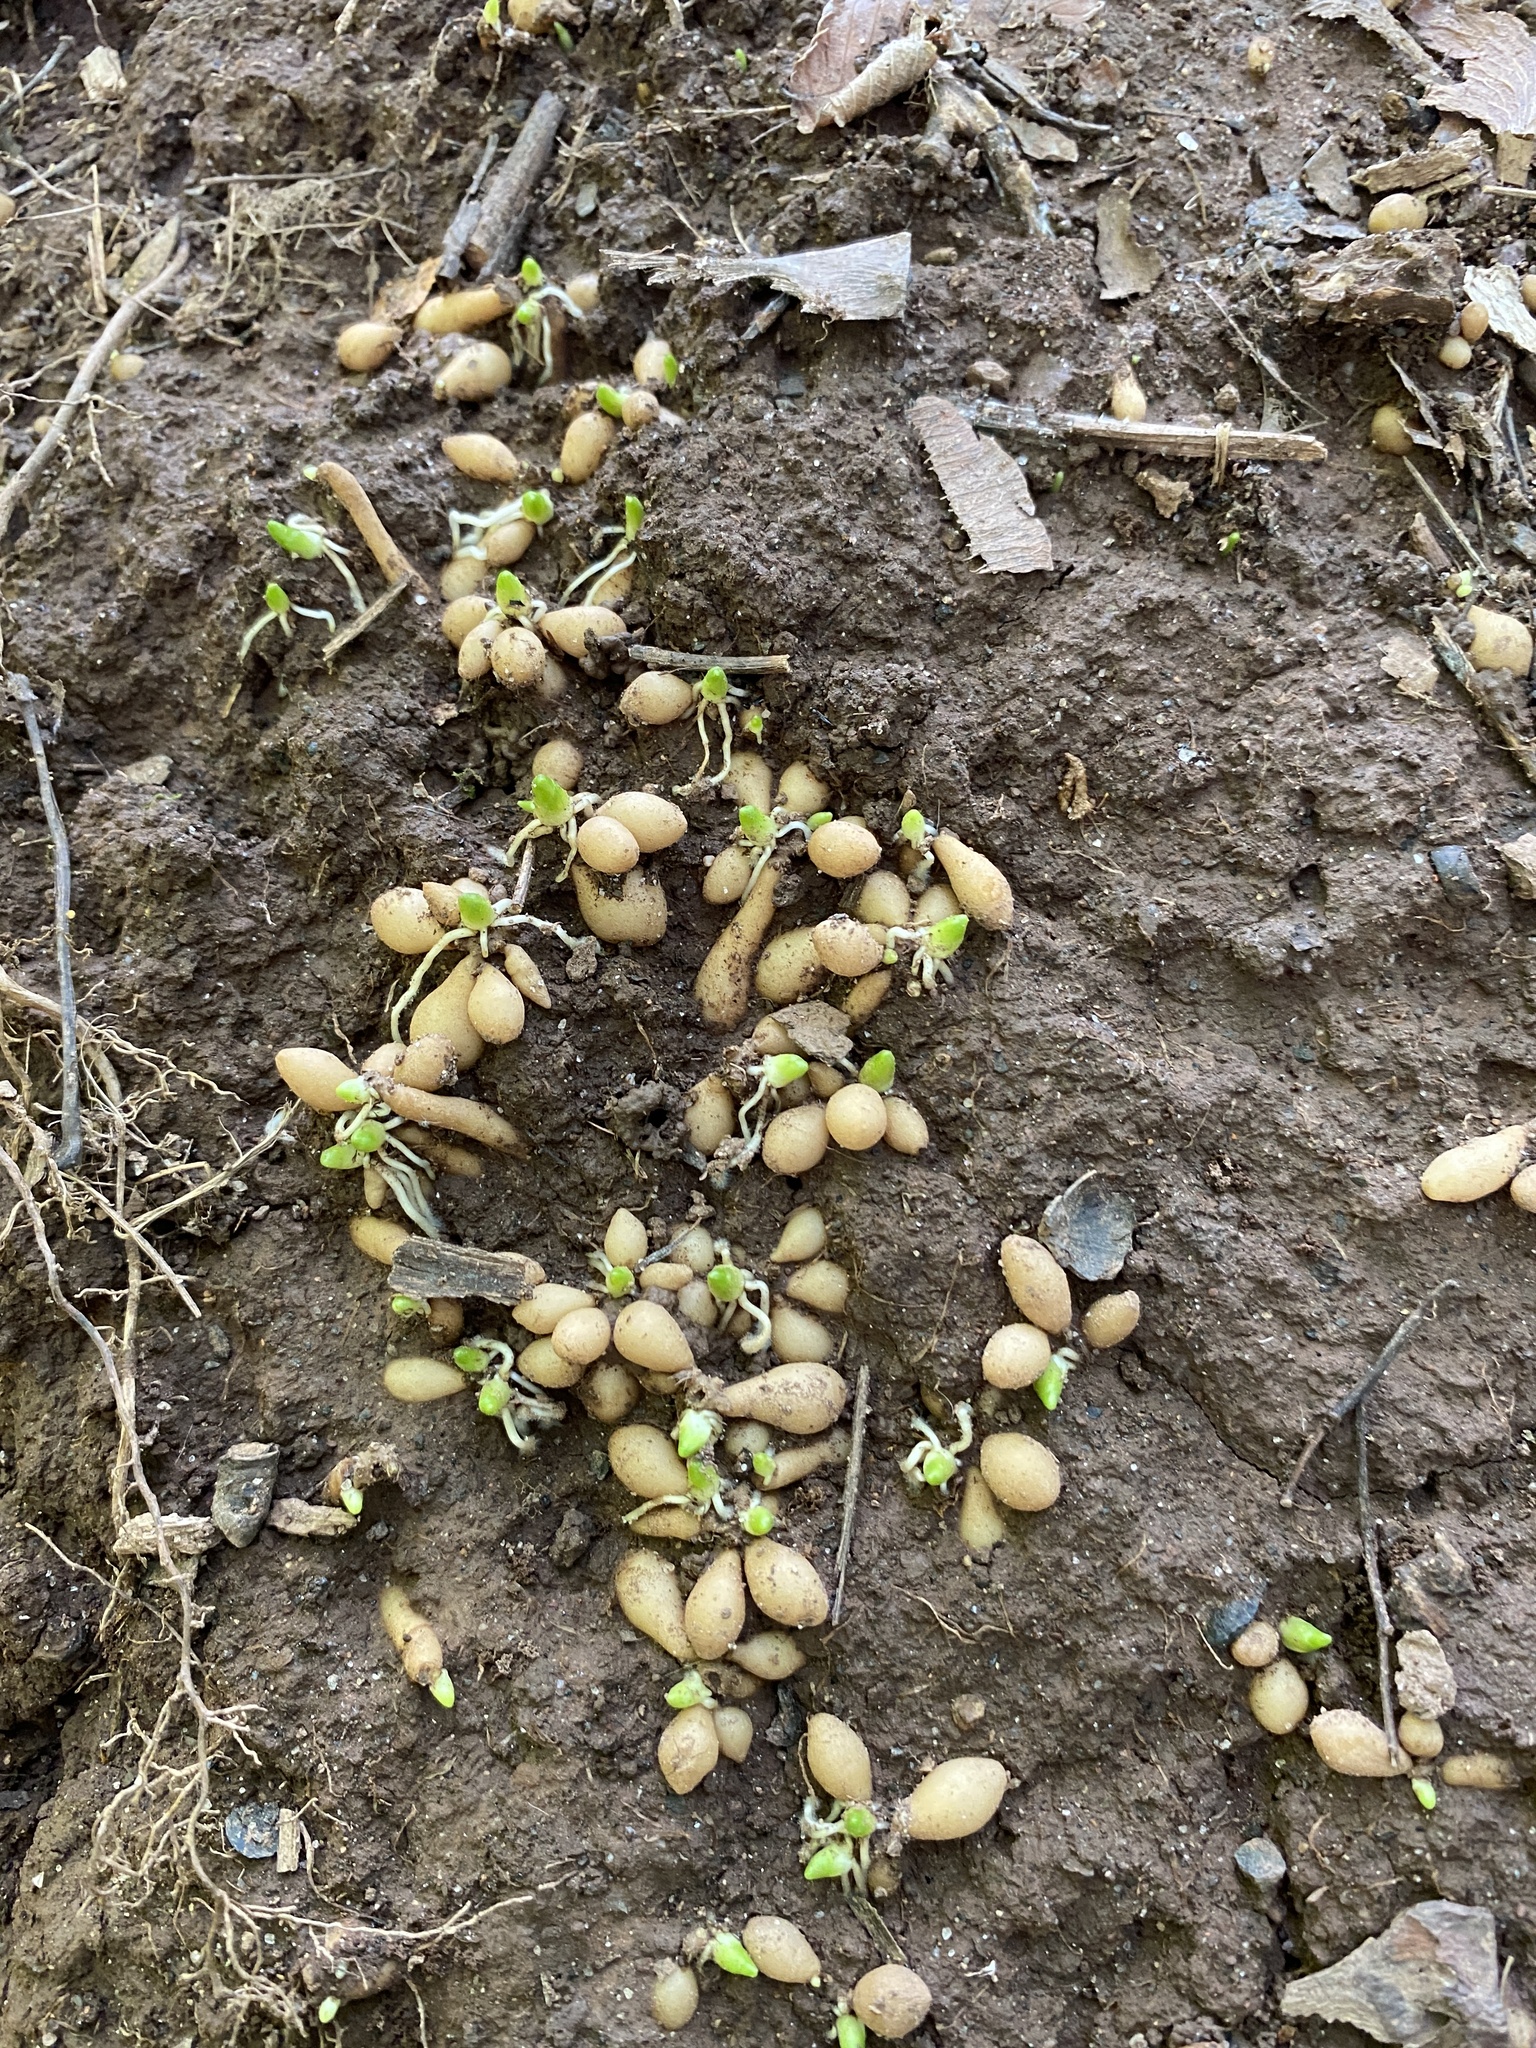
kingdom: Plantae
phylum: Tracheophyta
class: Magnoliopsida
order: Ranunculales
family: Ranunculaceae
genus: Ficaria
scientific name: Ficaria verna
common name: Lesser celandine
